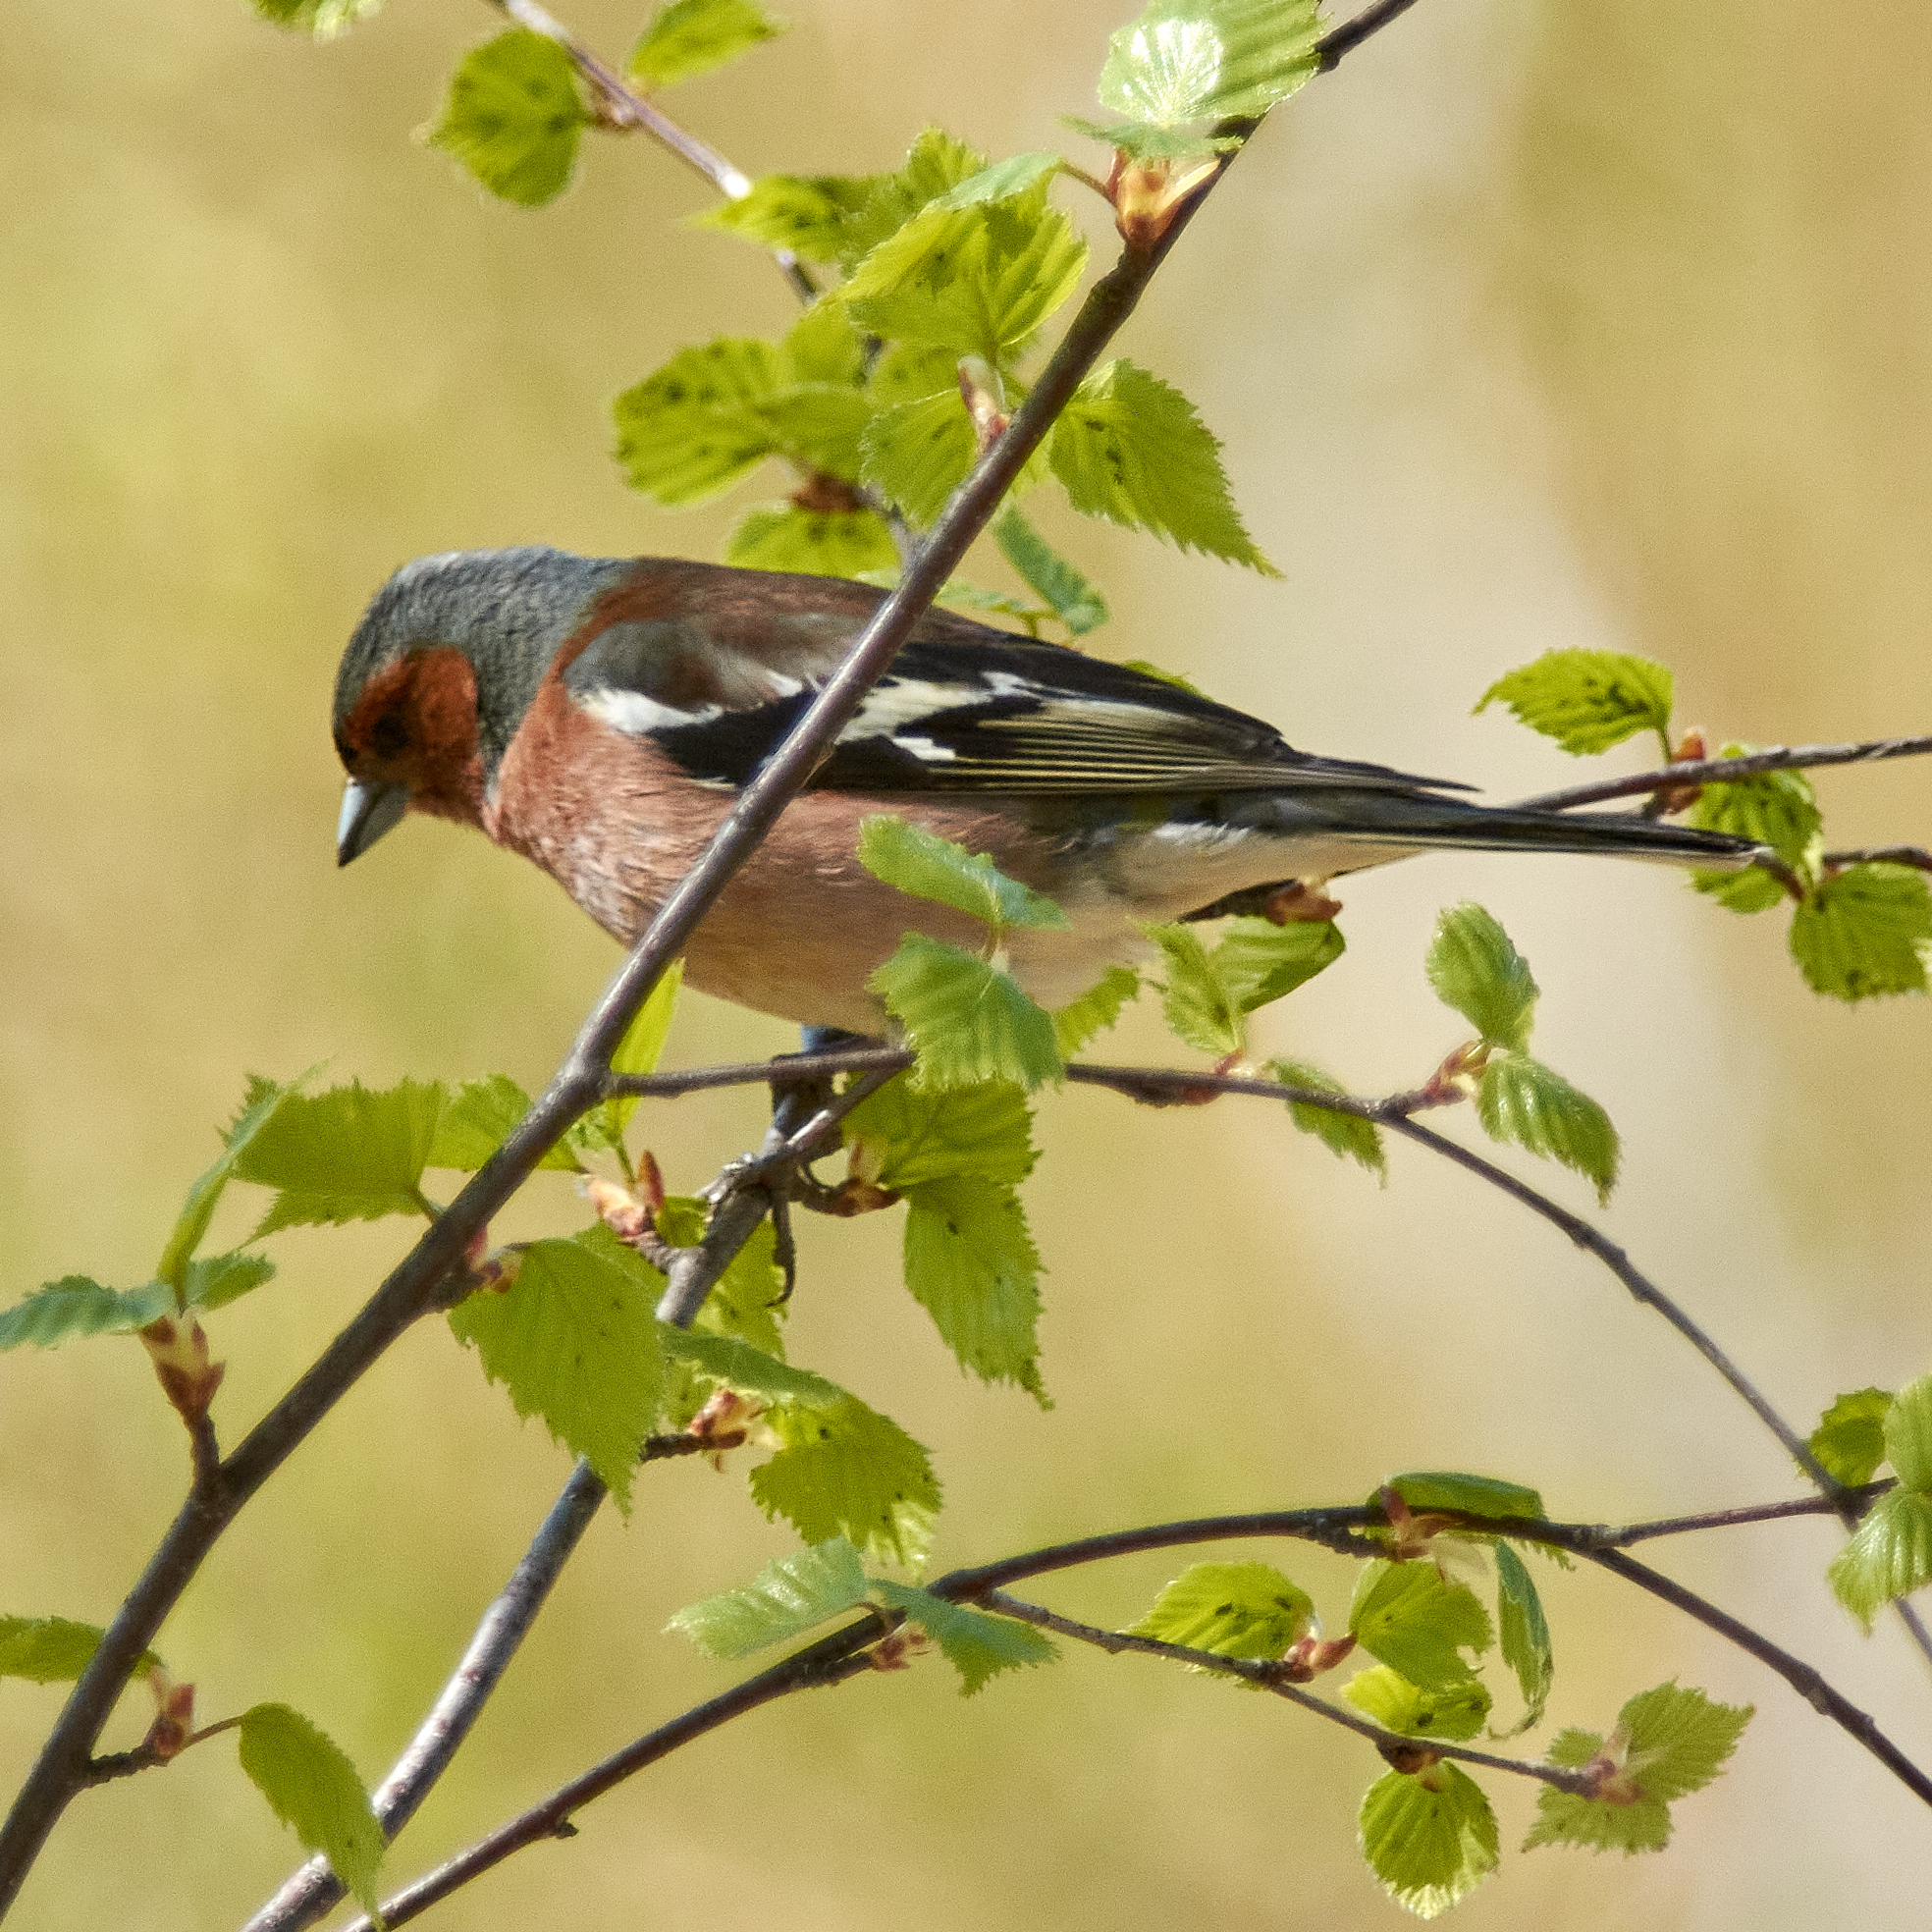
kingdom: Animalia
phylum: Chordata
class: Aves
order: Passeriformes
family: Fringillidae
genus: Fringilla
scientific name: Fringilla coelebs
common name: Common chaffinch
